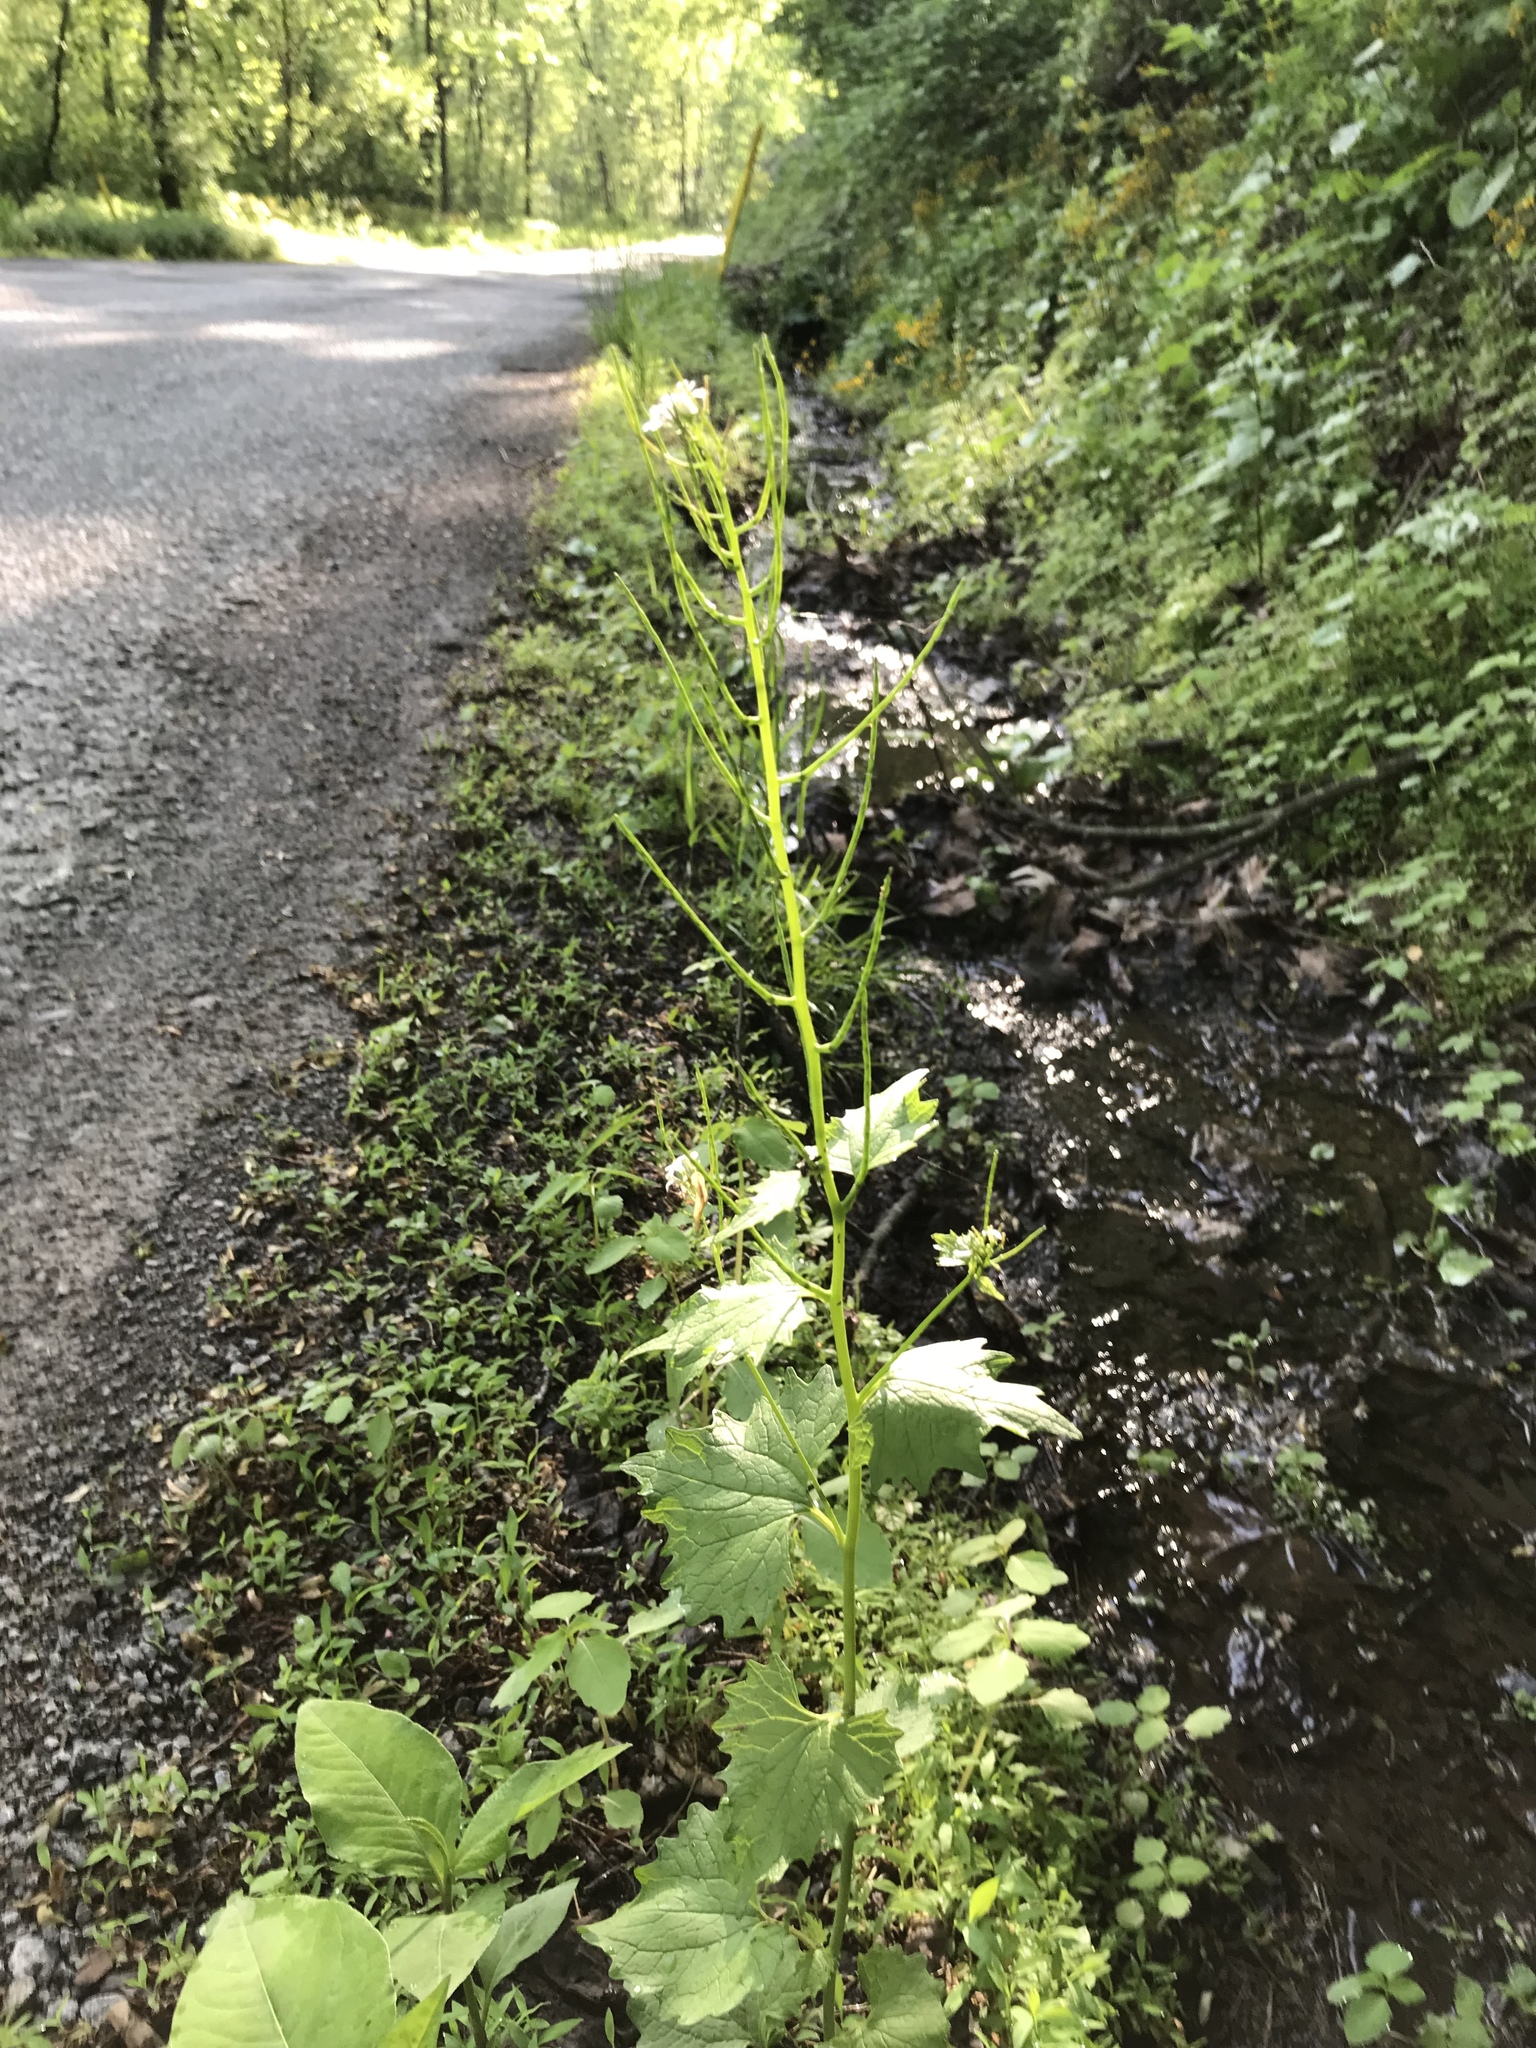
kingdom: Plantae
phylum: Tracheophyta
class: Magnoliopsida
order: Brassicales
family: Brassicaceae
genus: Alliaria
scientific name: Alliaria petiolata
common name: Garlic mustard
